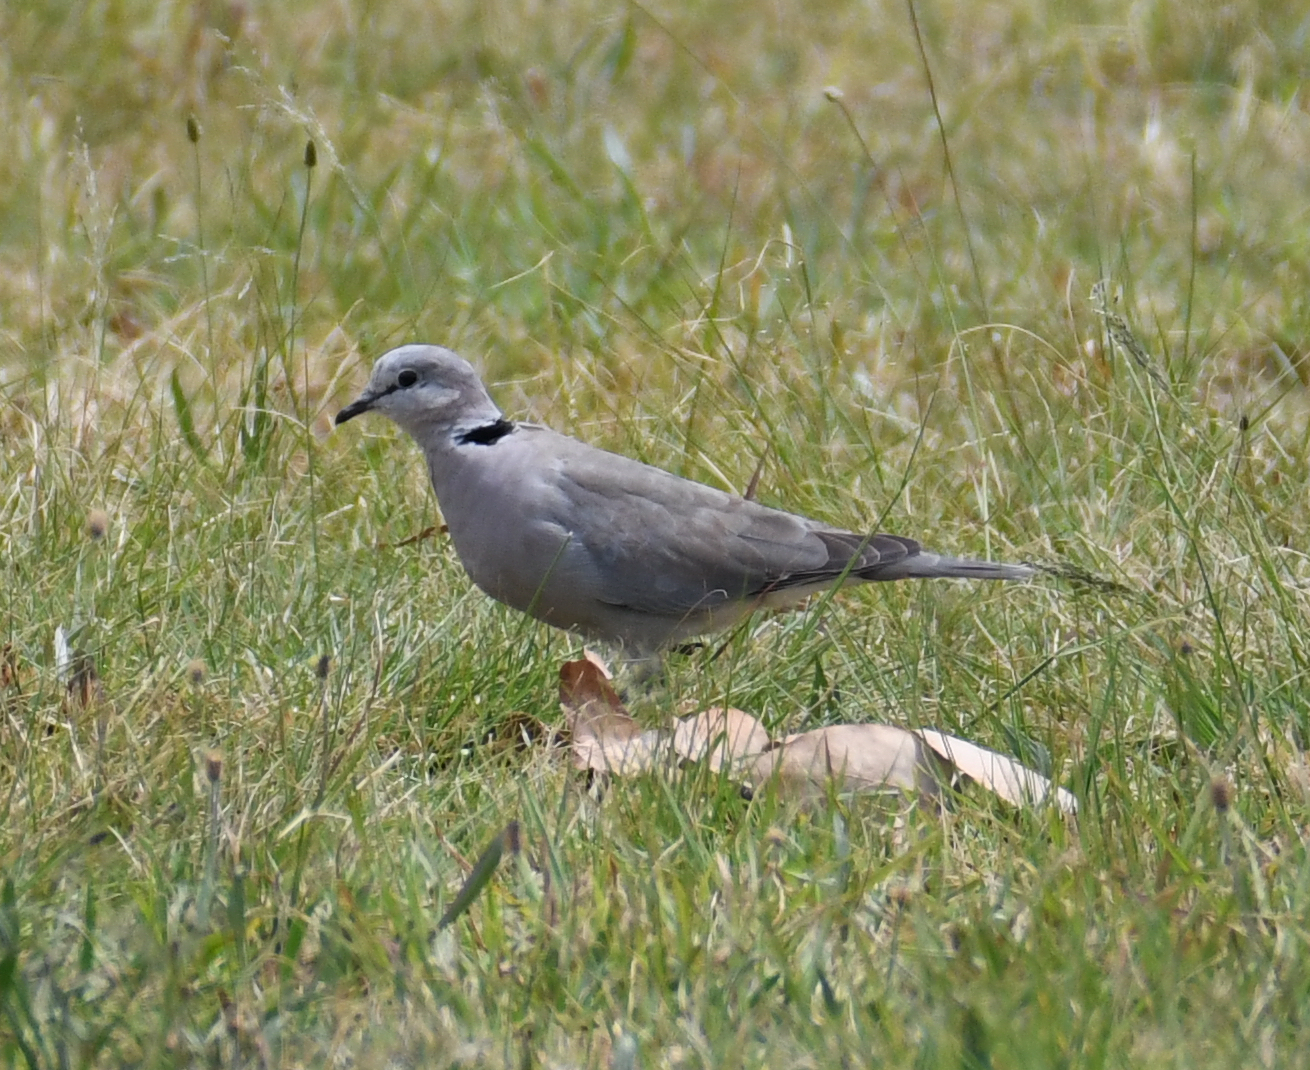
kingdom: Animalia
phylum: Chordata
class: Aves
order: Columbiformes
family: Columbidae
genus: Streptopelia
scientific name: Streptopelia capicola
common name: Ring-necked dove
